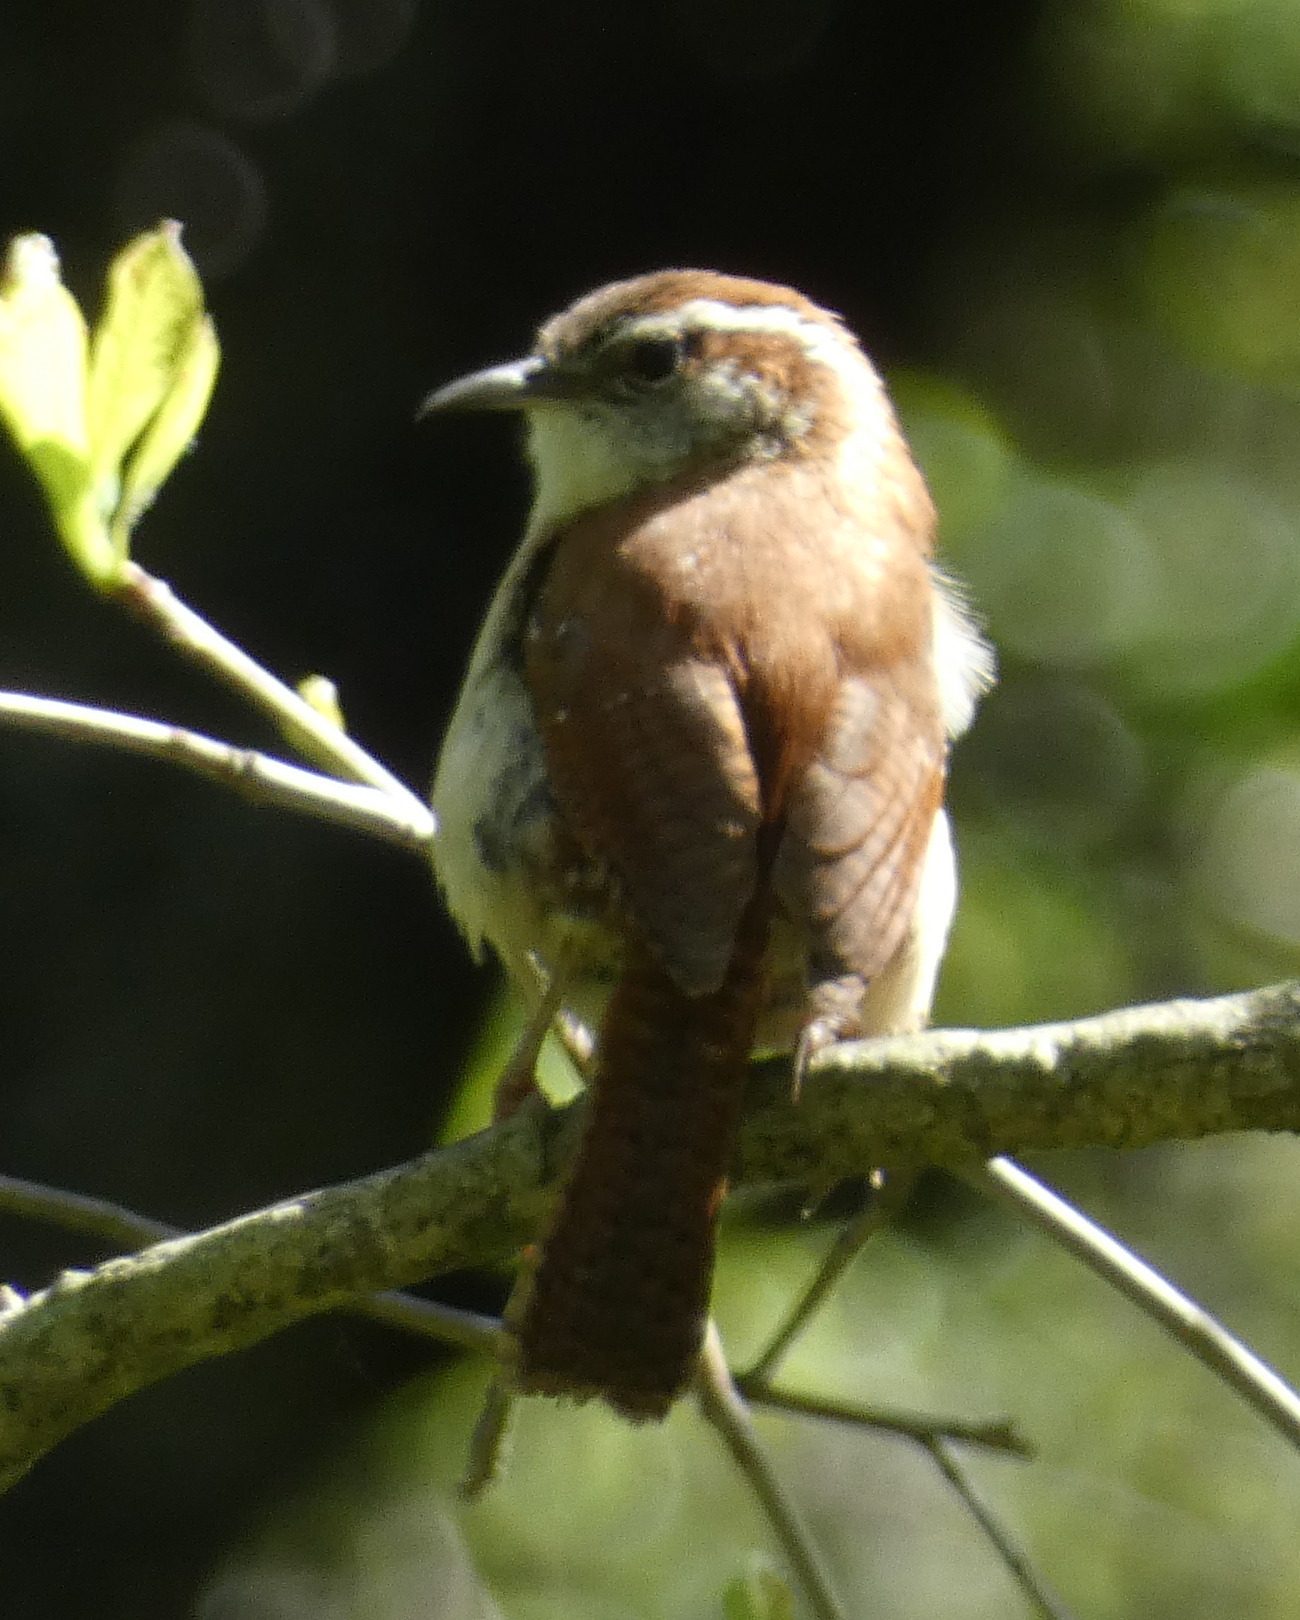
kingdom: Animalia
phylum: Chordata
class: Aves
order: Passeriformes
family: Troglodytidae
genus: Thryothorus
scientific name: Thryothorus ludovicianus
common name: Carolina wren
